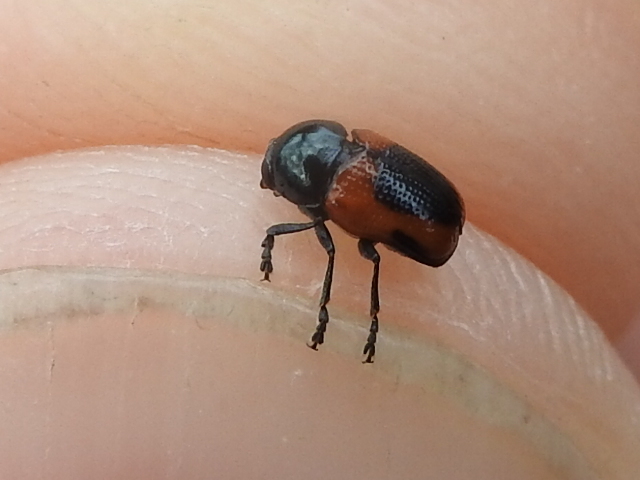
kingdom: Animalia
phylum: Arthropoda
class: Insecta
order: Coleoptera
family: Chrysomelidae
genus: Cryptocephalus
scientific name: Cryptocephalus notatus
